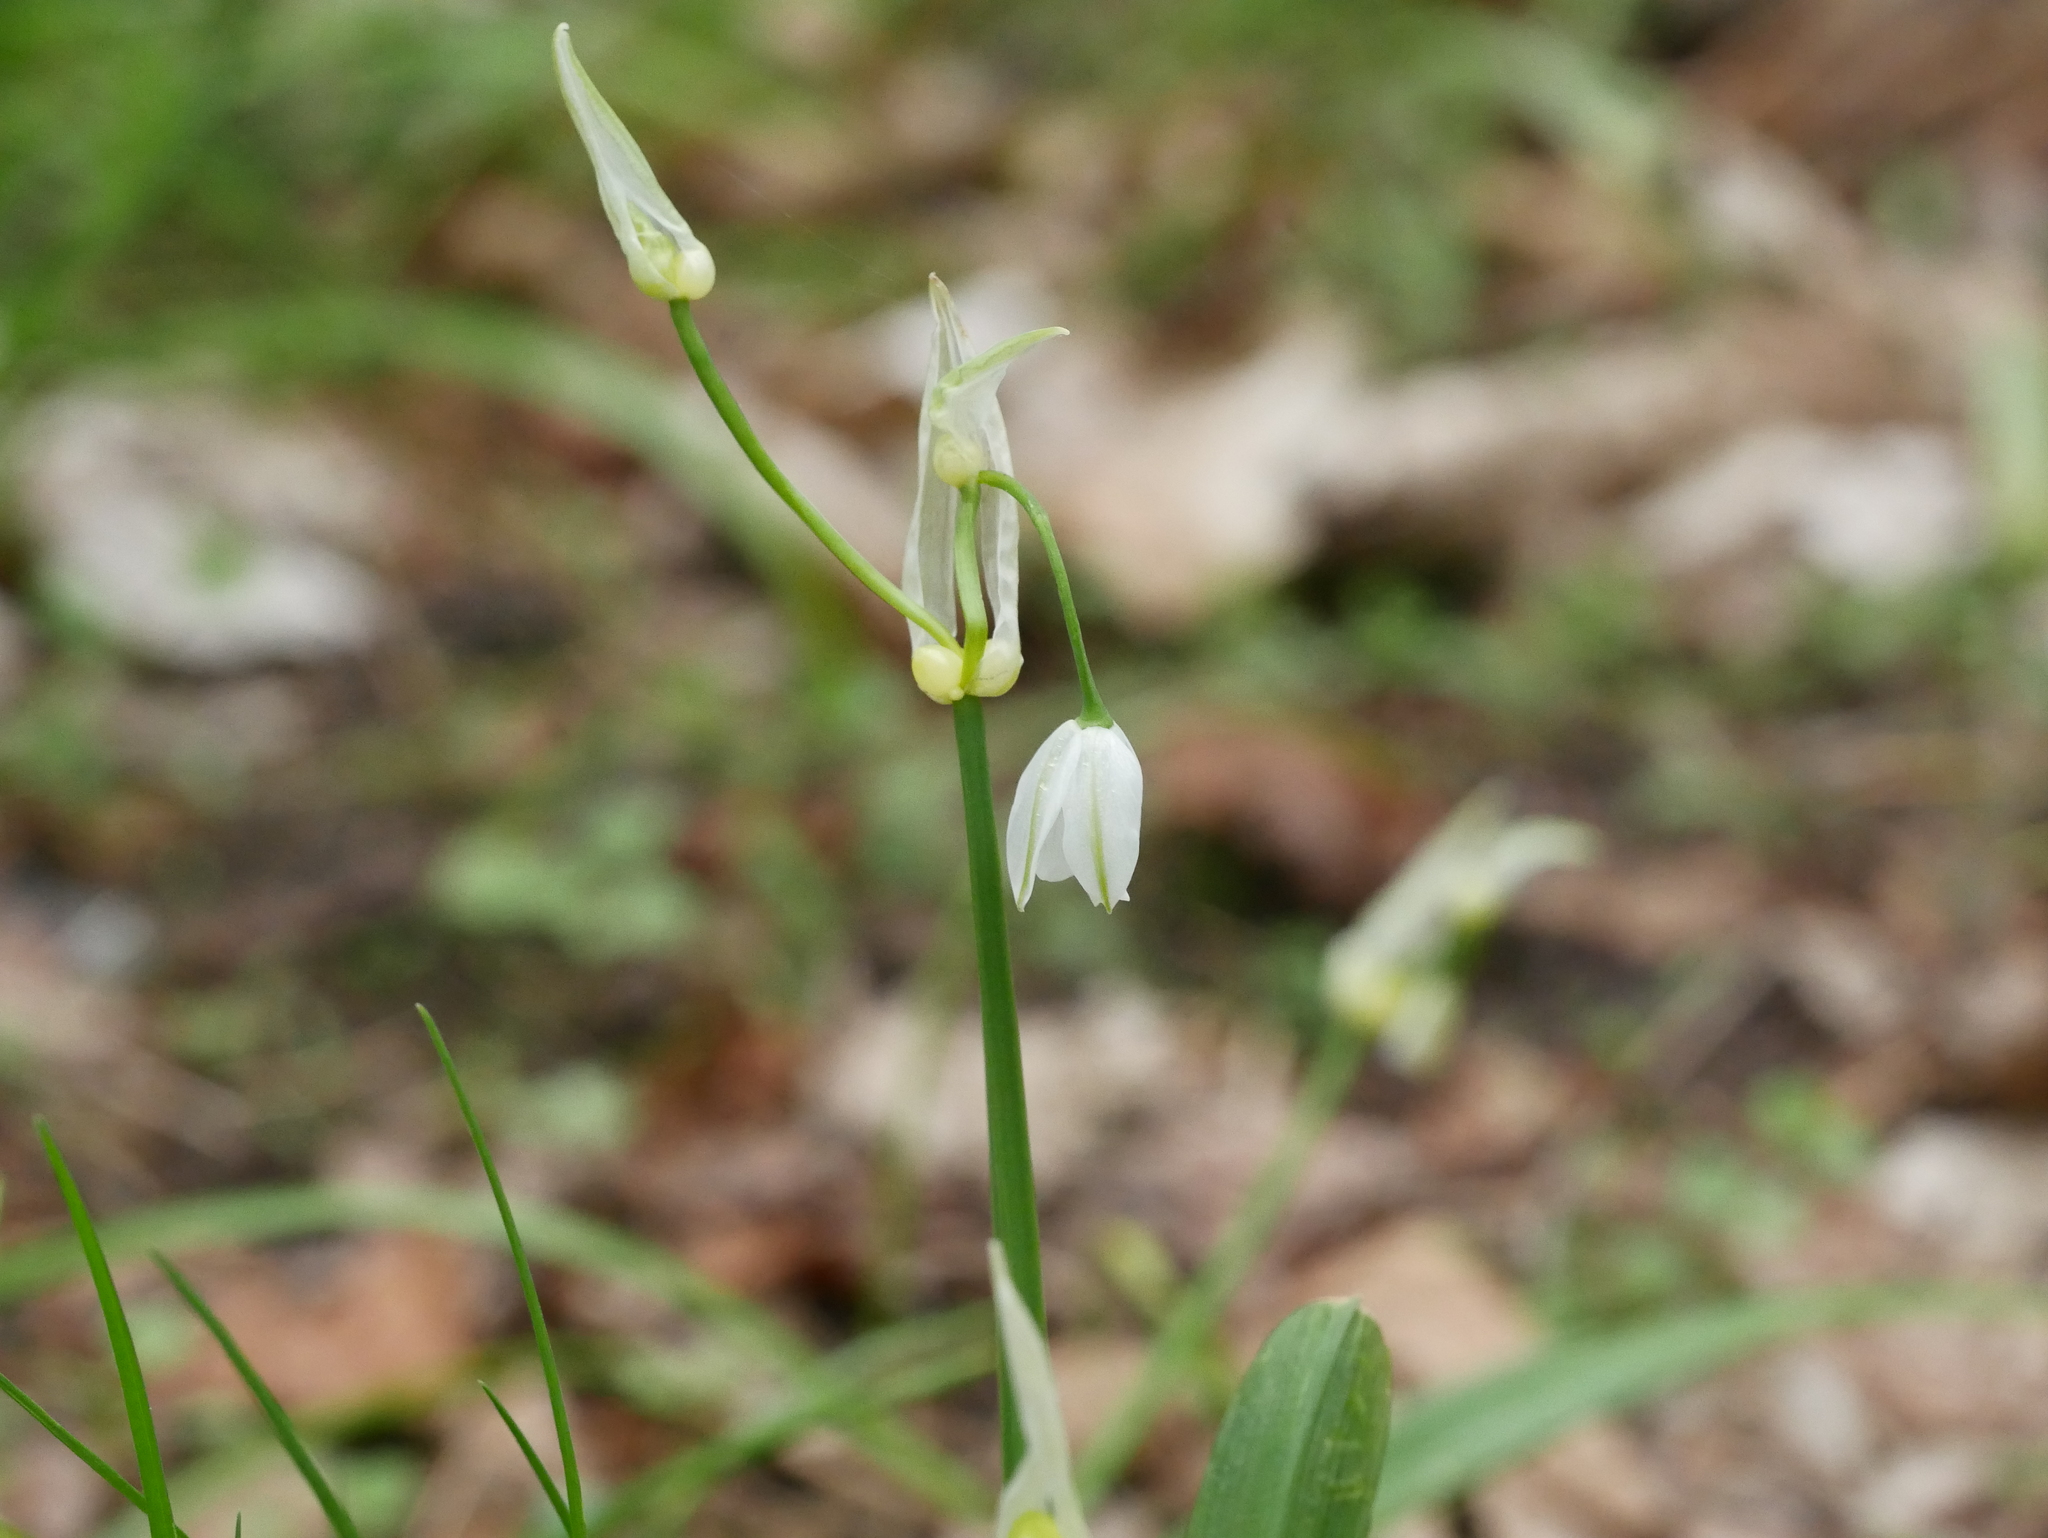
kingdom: Plantae
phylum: Tracheophyta
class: Liliopsida
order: Asparagales
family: Amaryllidaceae
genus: Allium
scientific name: Allium paradoxum
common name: Few-flowered garlic
